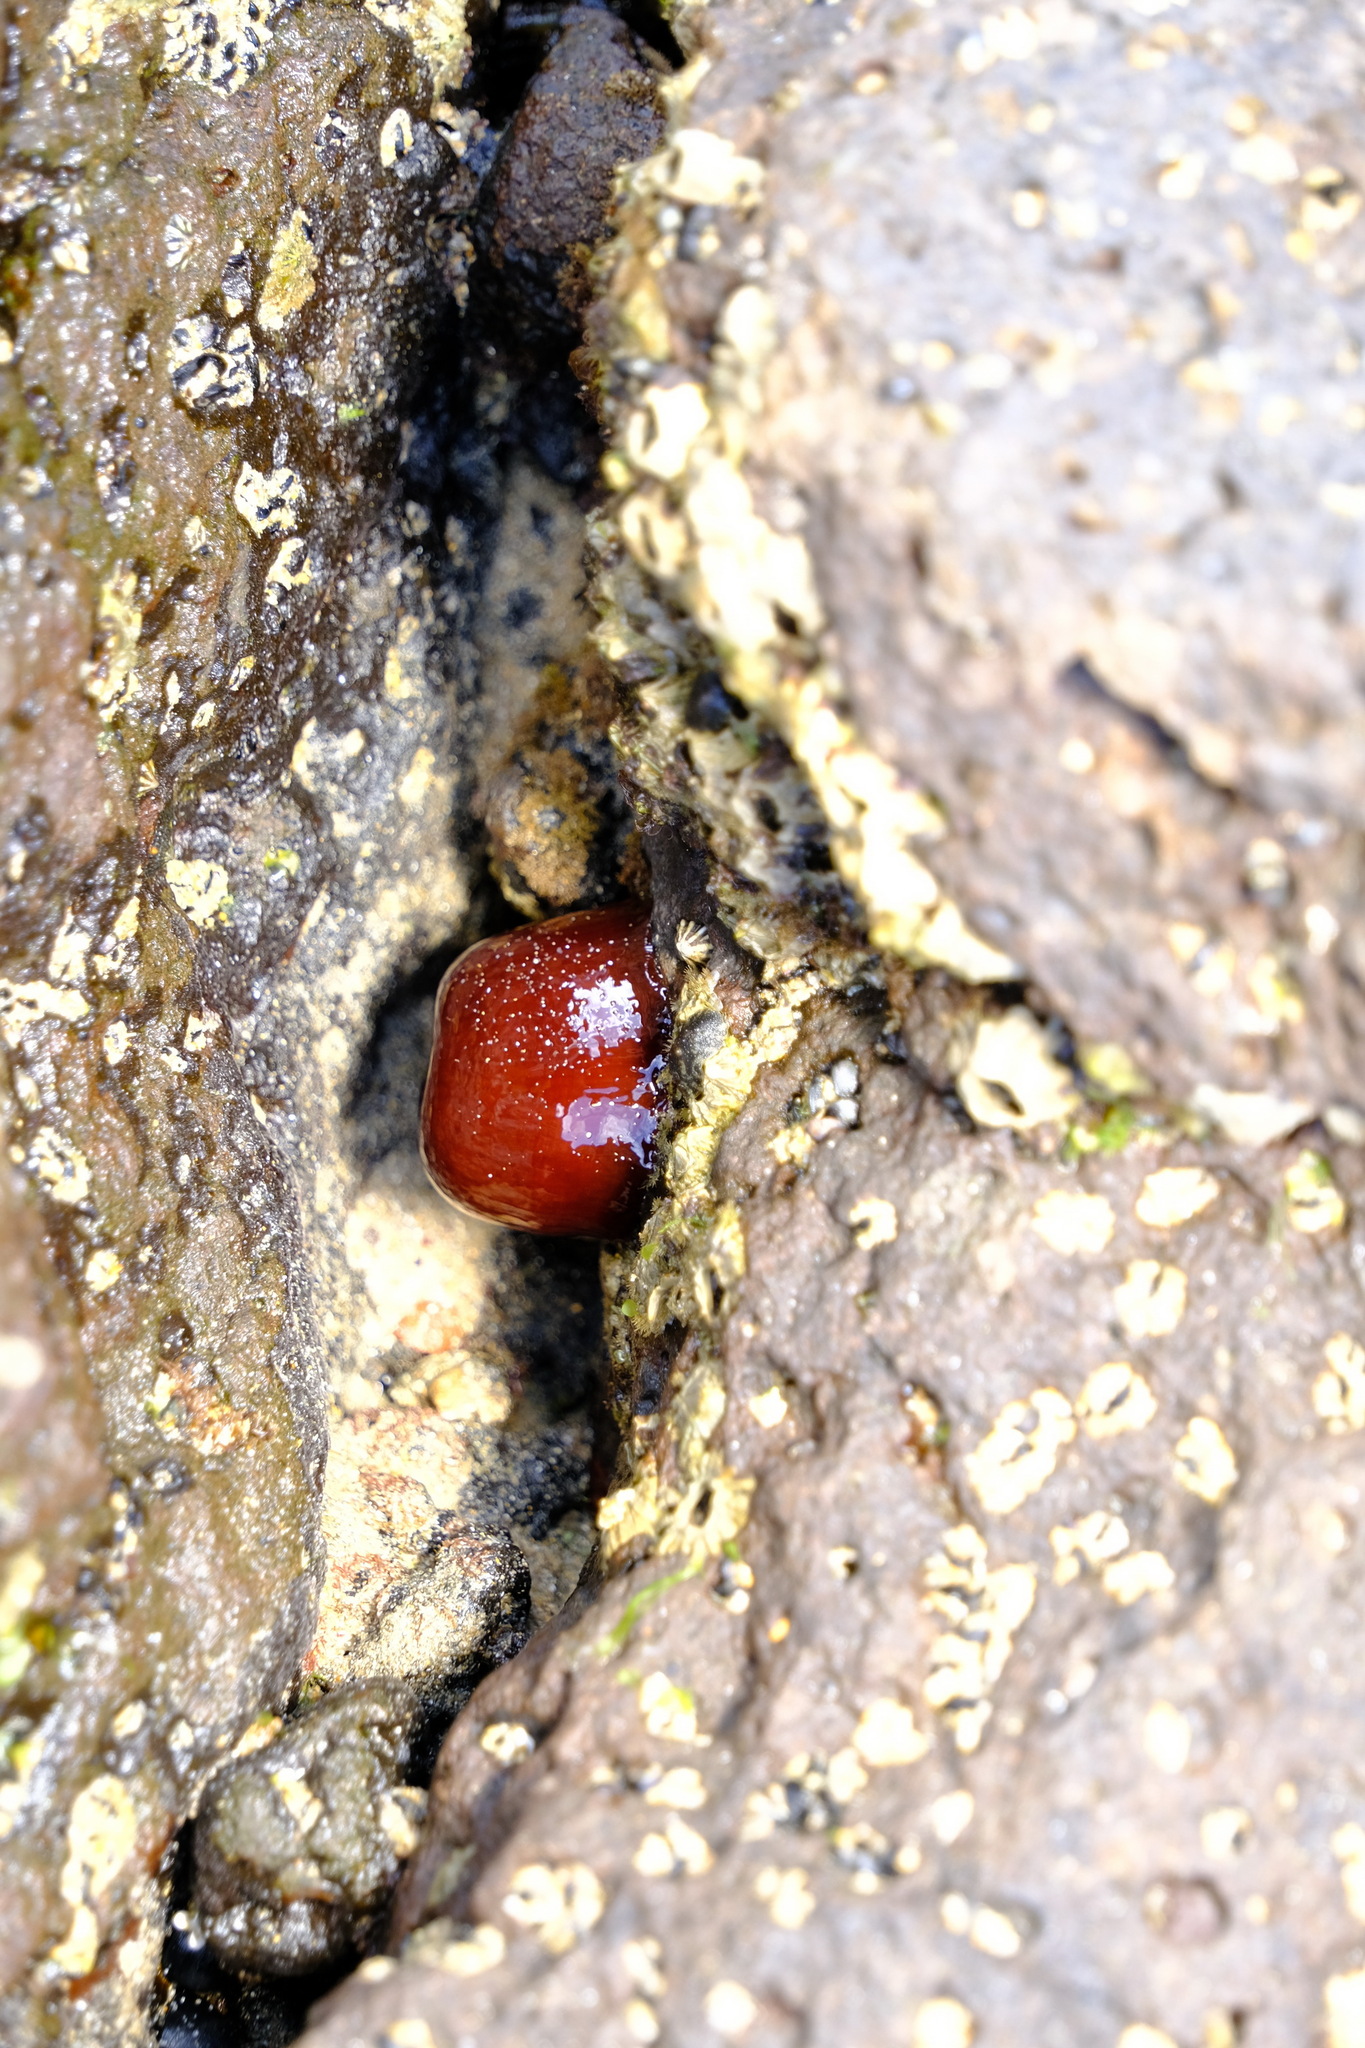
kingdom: Animalia
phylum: Cnidaria
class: Anthozoa
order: Actiniaria
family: Actiniidae
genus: Actinia
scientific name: Actinia tenebrosa
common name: Waratah anemone
